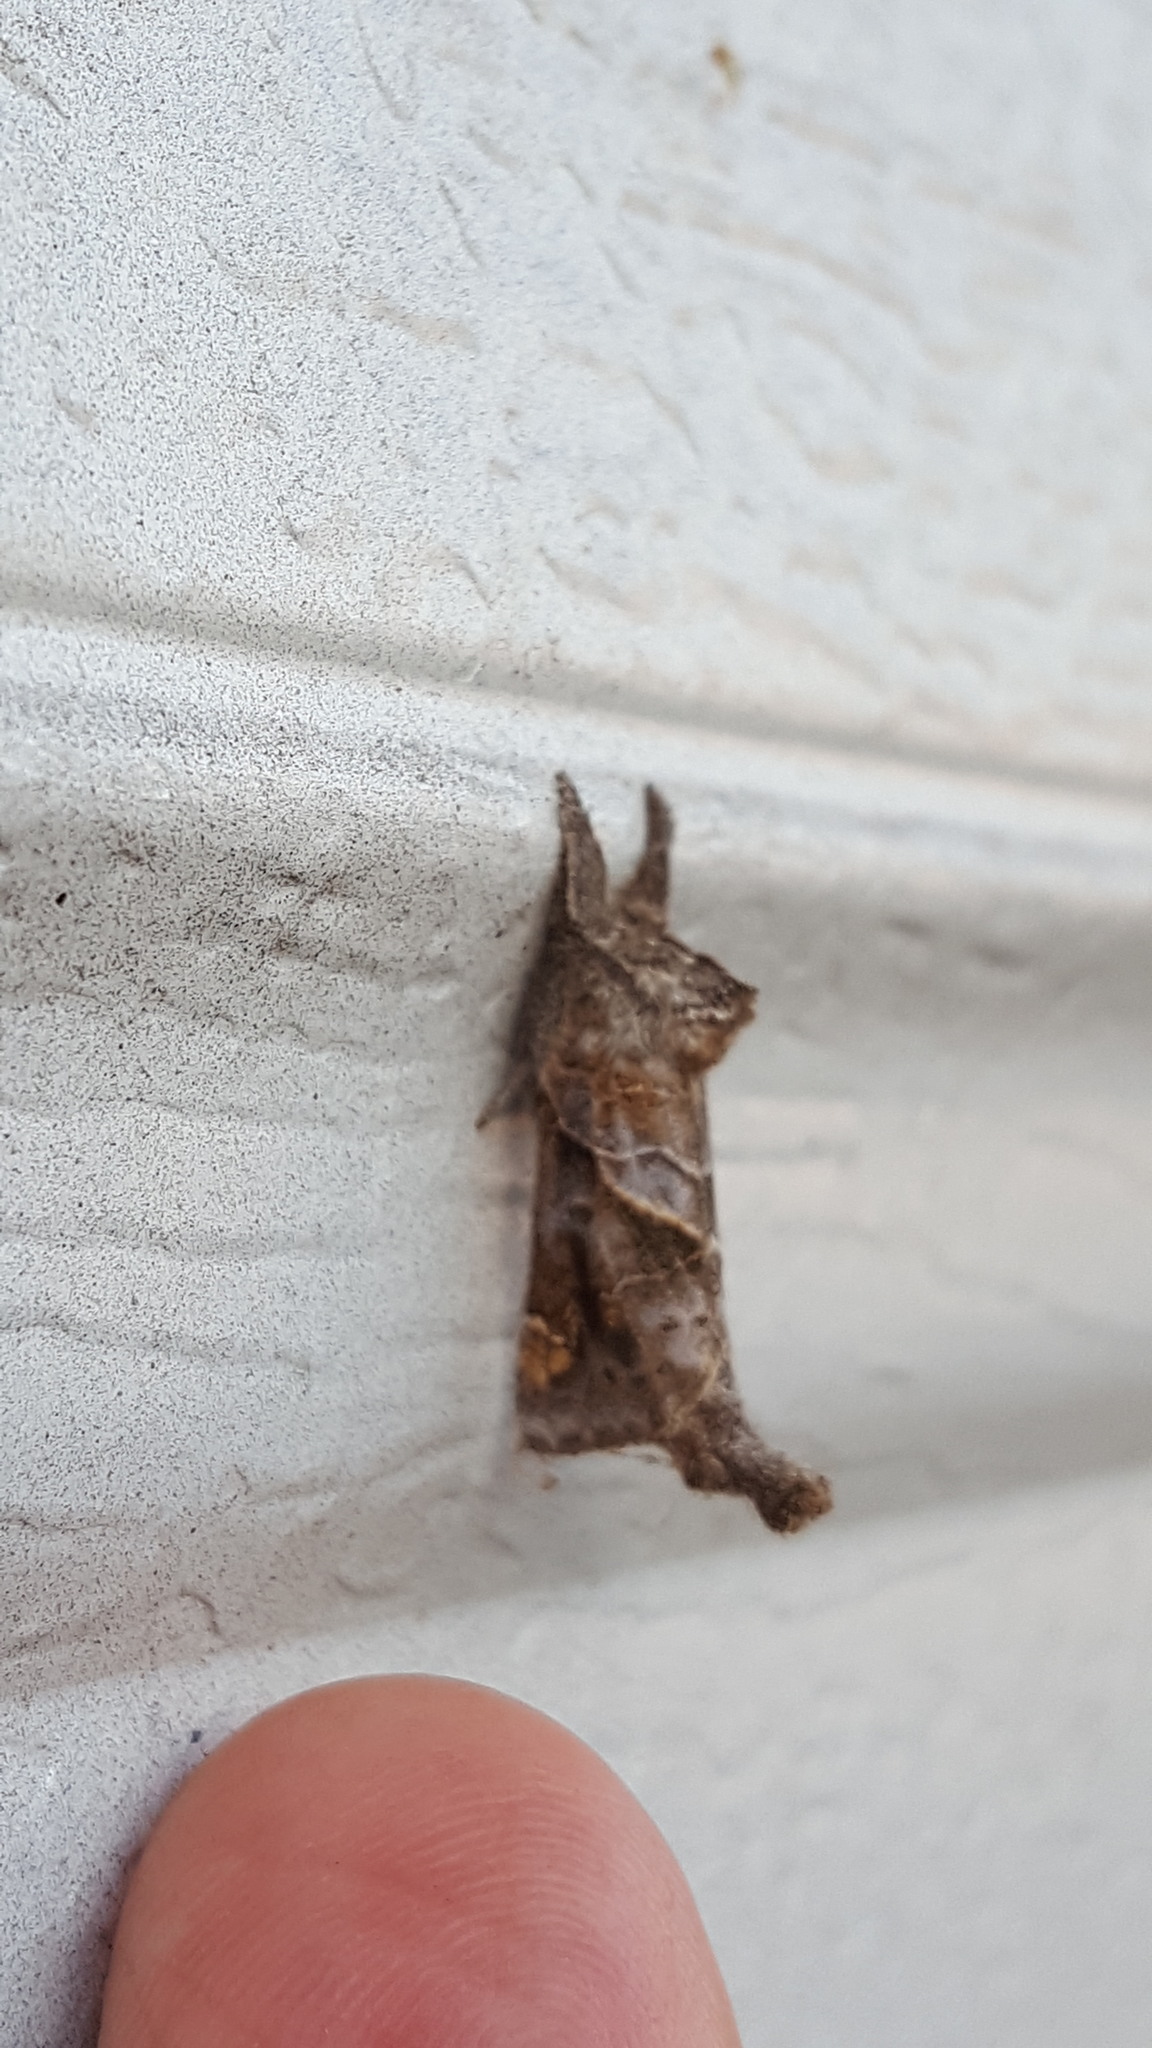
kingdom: Animalia
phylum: Arthropoda
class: Insecta
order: Lepidoptera
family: Notodontidae
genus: Clostera
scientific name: Clostera strigosa
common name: Striped chocolate-tip moth
